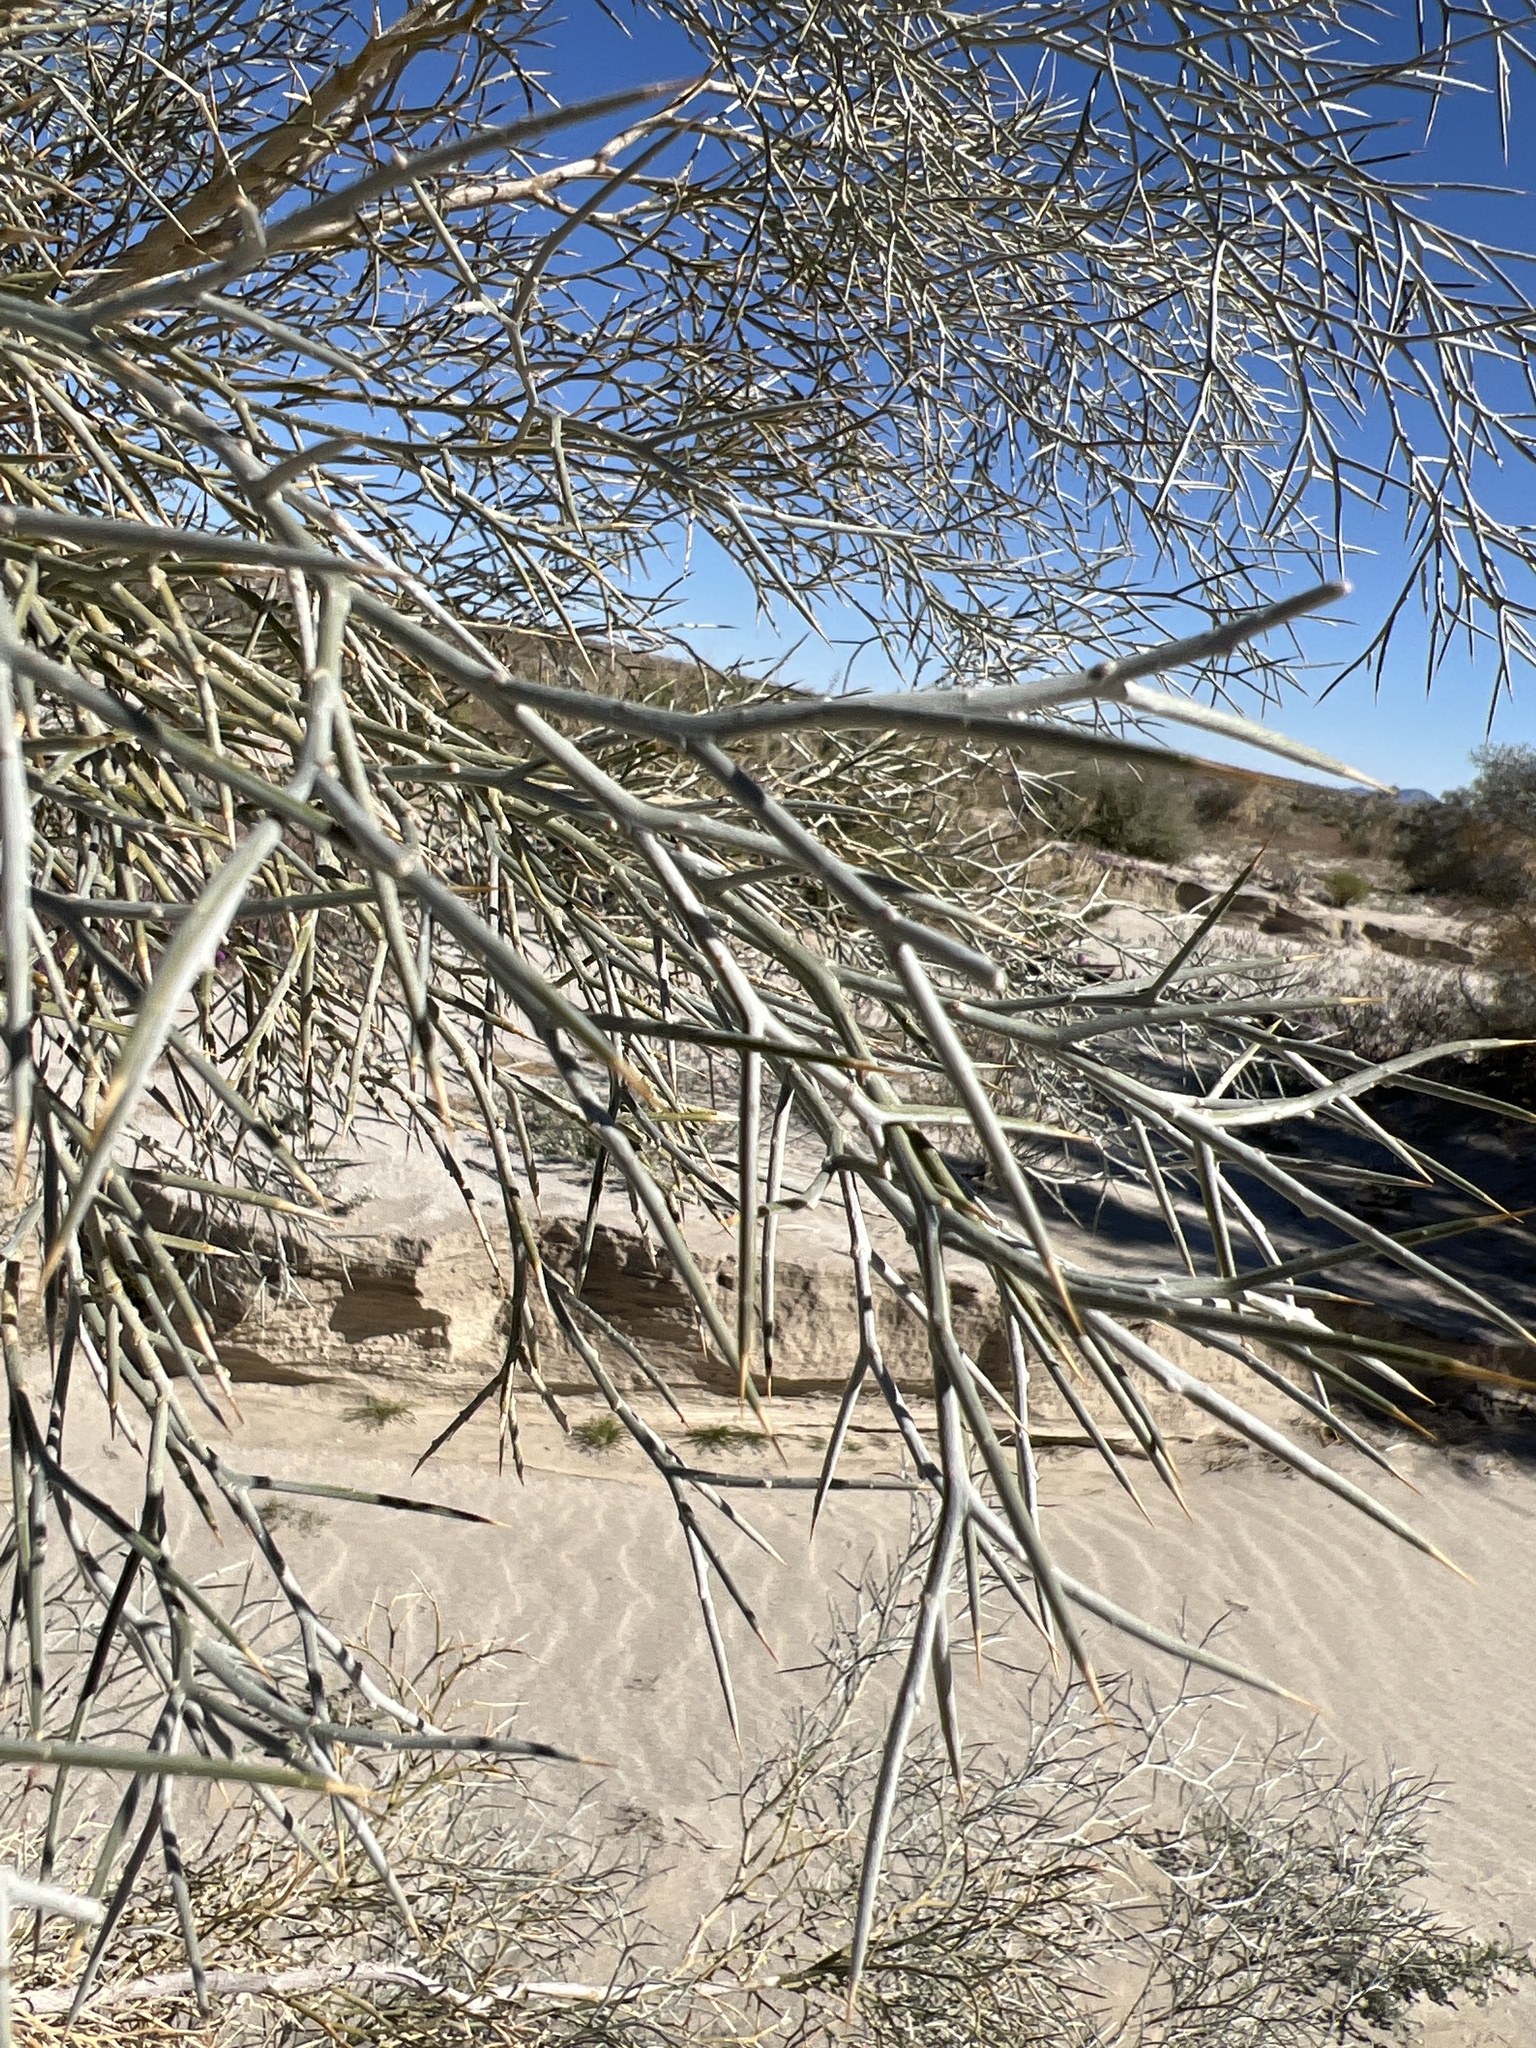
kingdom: Plantae
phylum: Tracheophyta
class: Magnoliopsida
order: Fabales
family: Fabaceae
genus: Psorothamnus
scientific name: Psorothamnus spinosus
